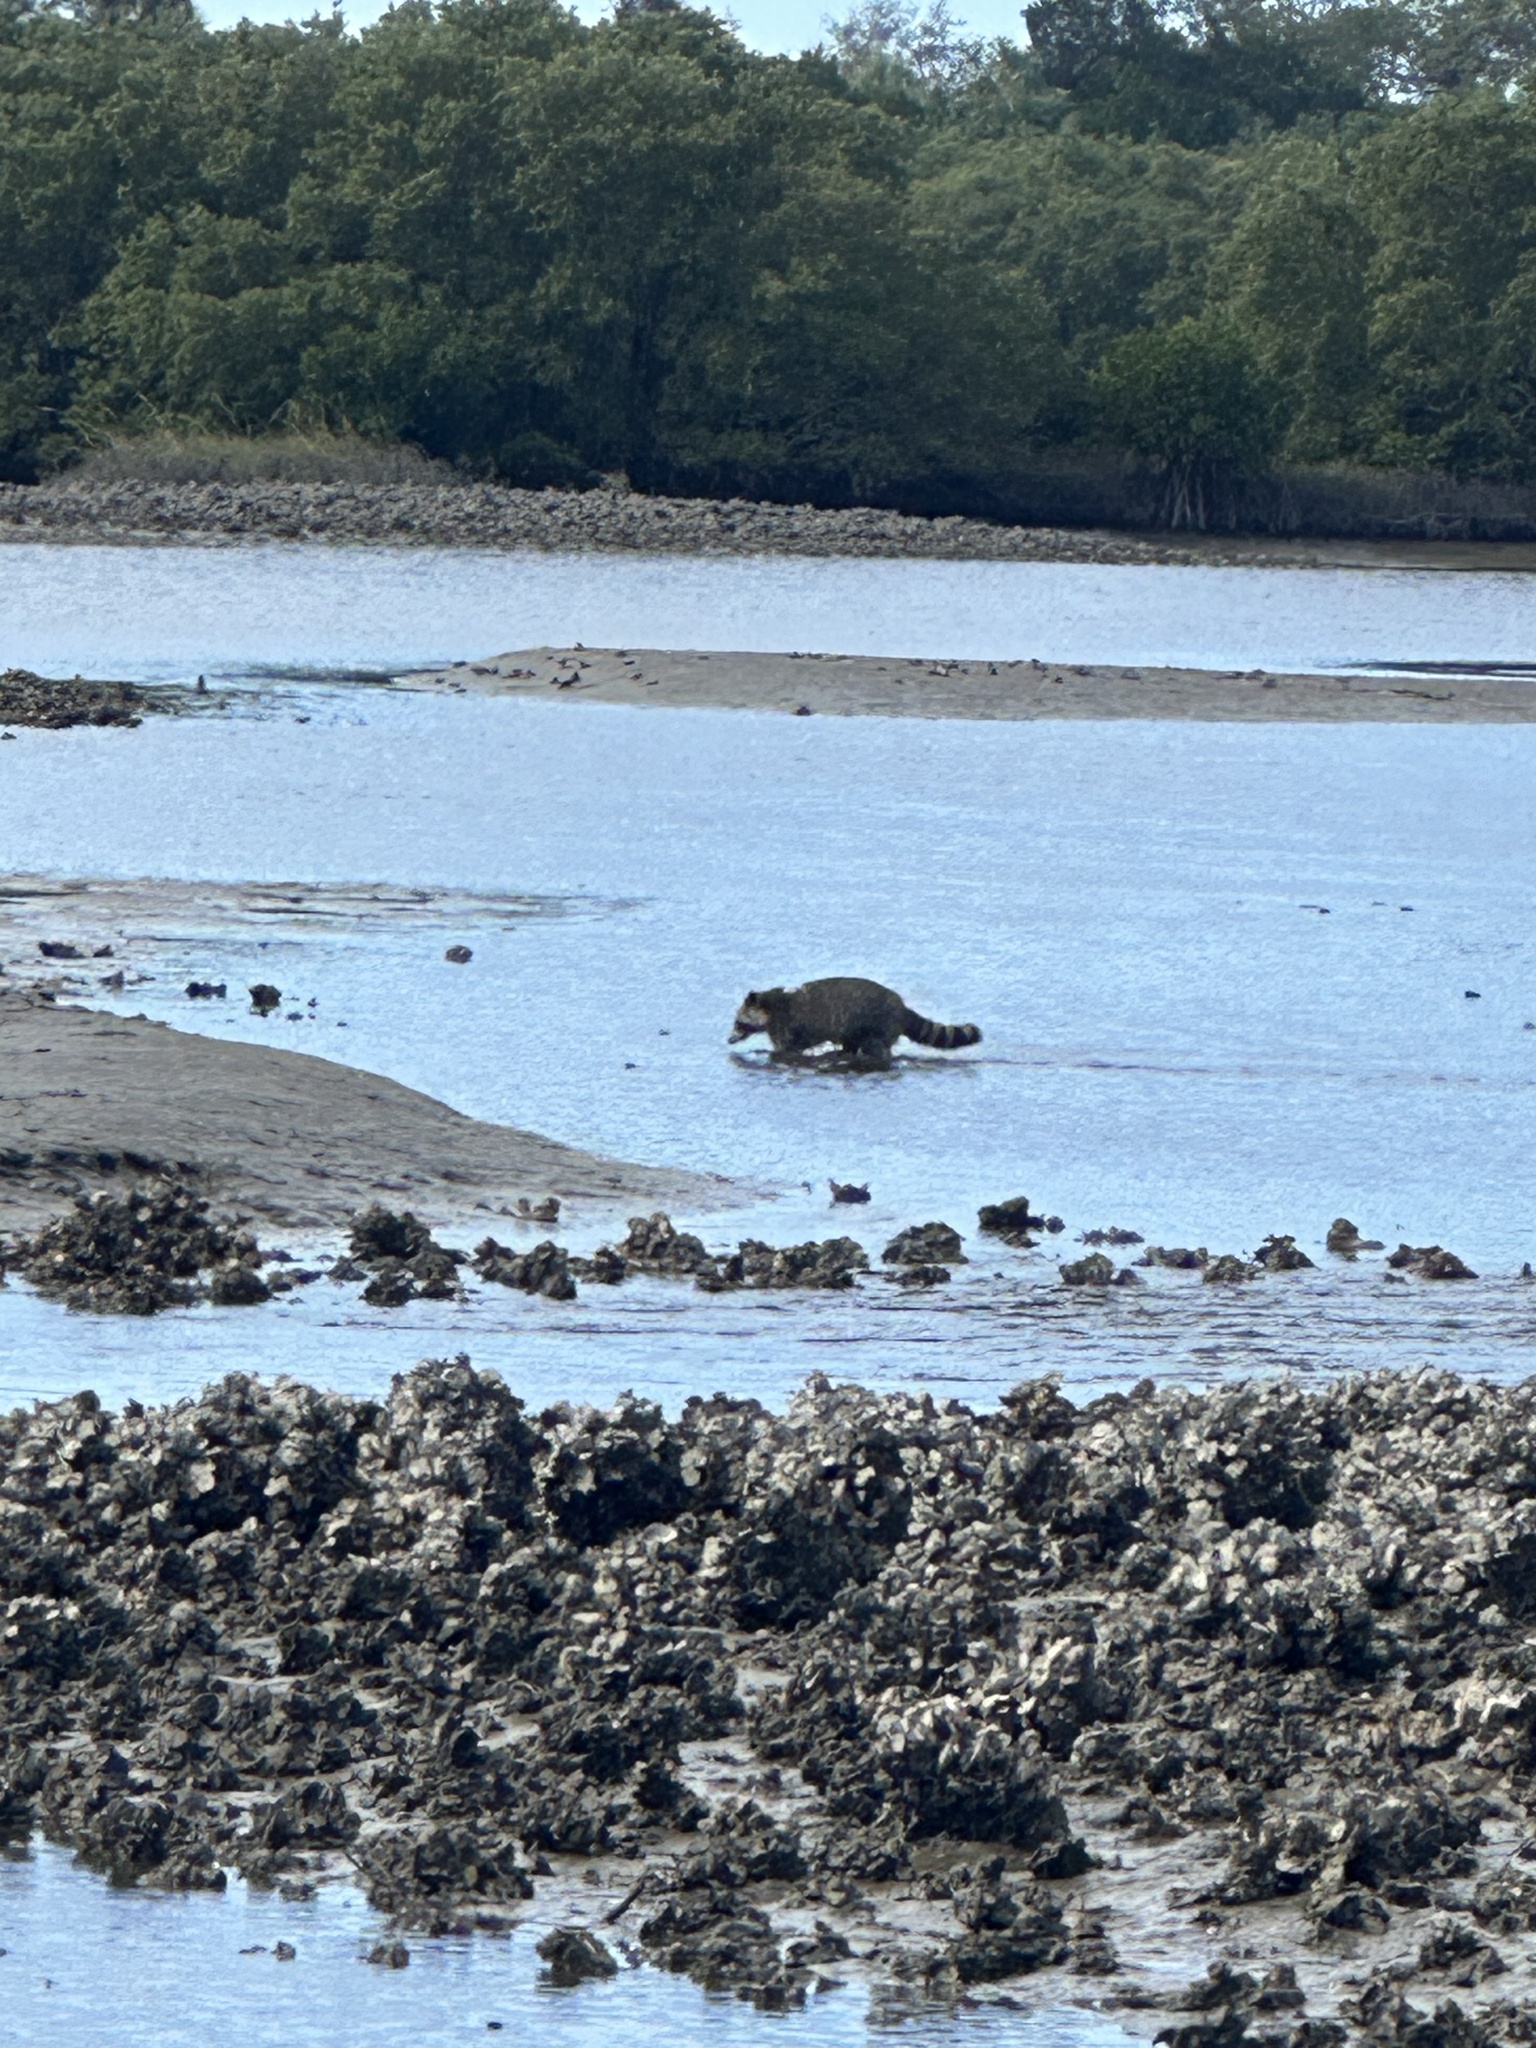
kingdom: Animalia
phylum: Chordata
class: Mammalia
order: Carnivora
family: Procyonidae
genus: Procyon
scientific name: Procyon lotor
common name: Raccoon
